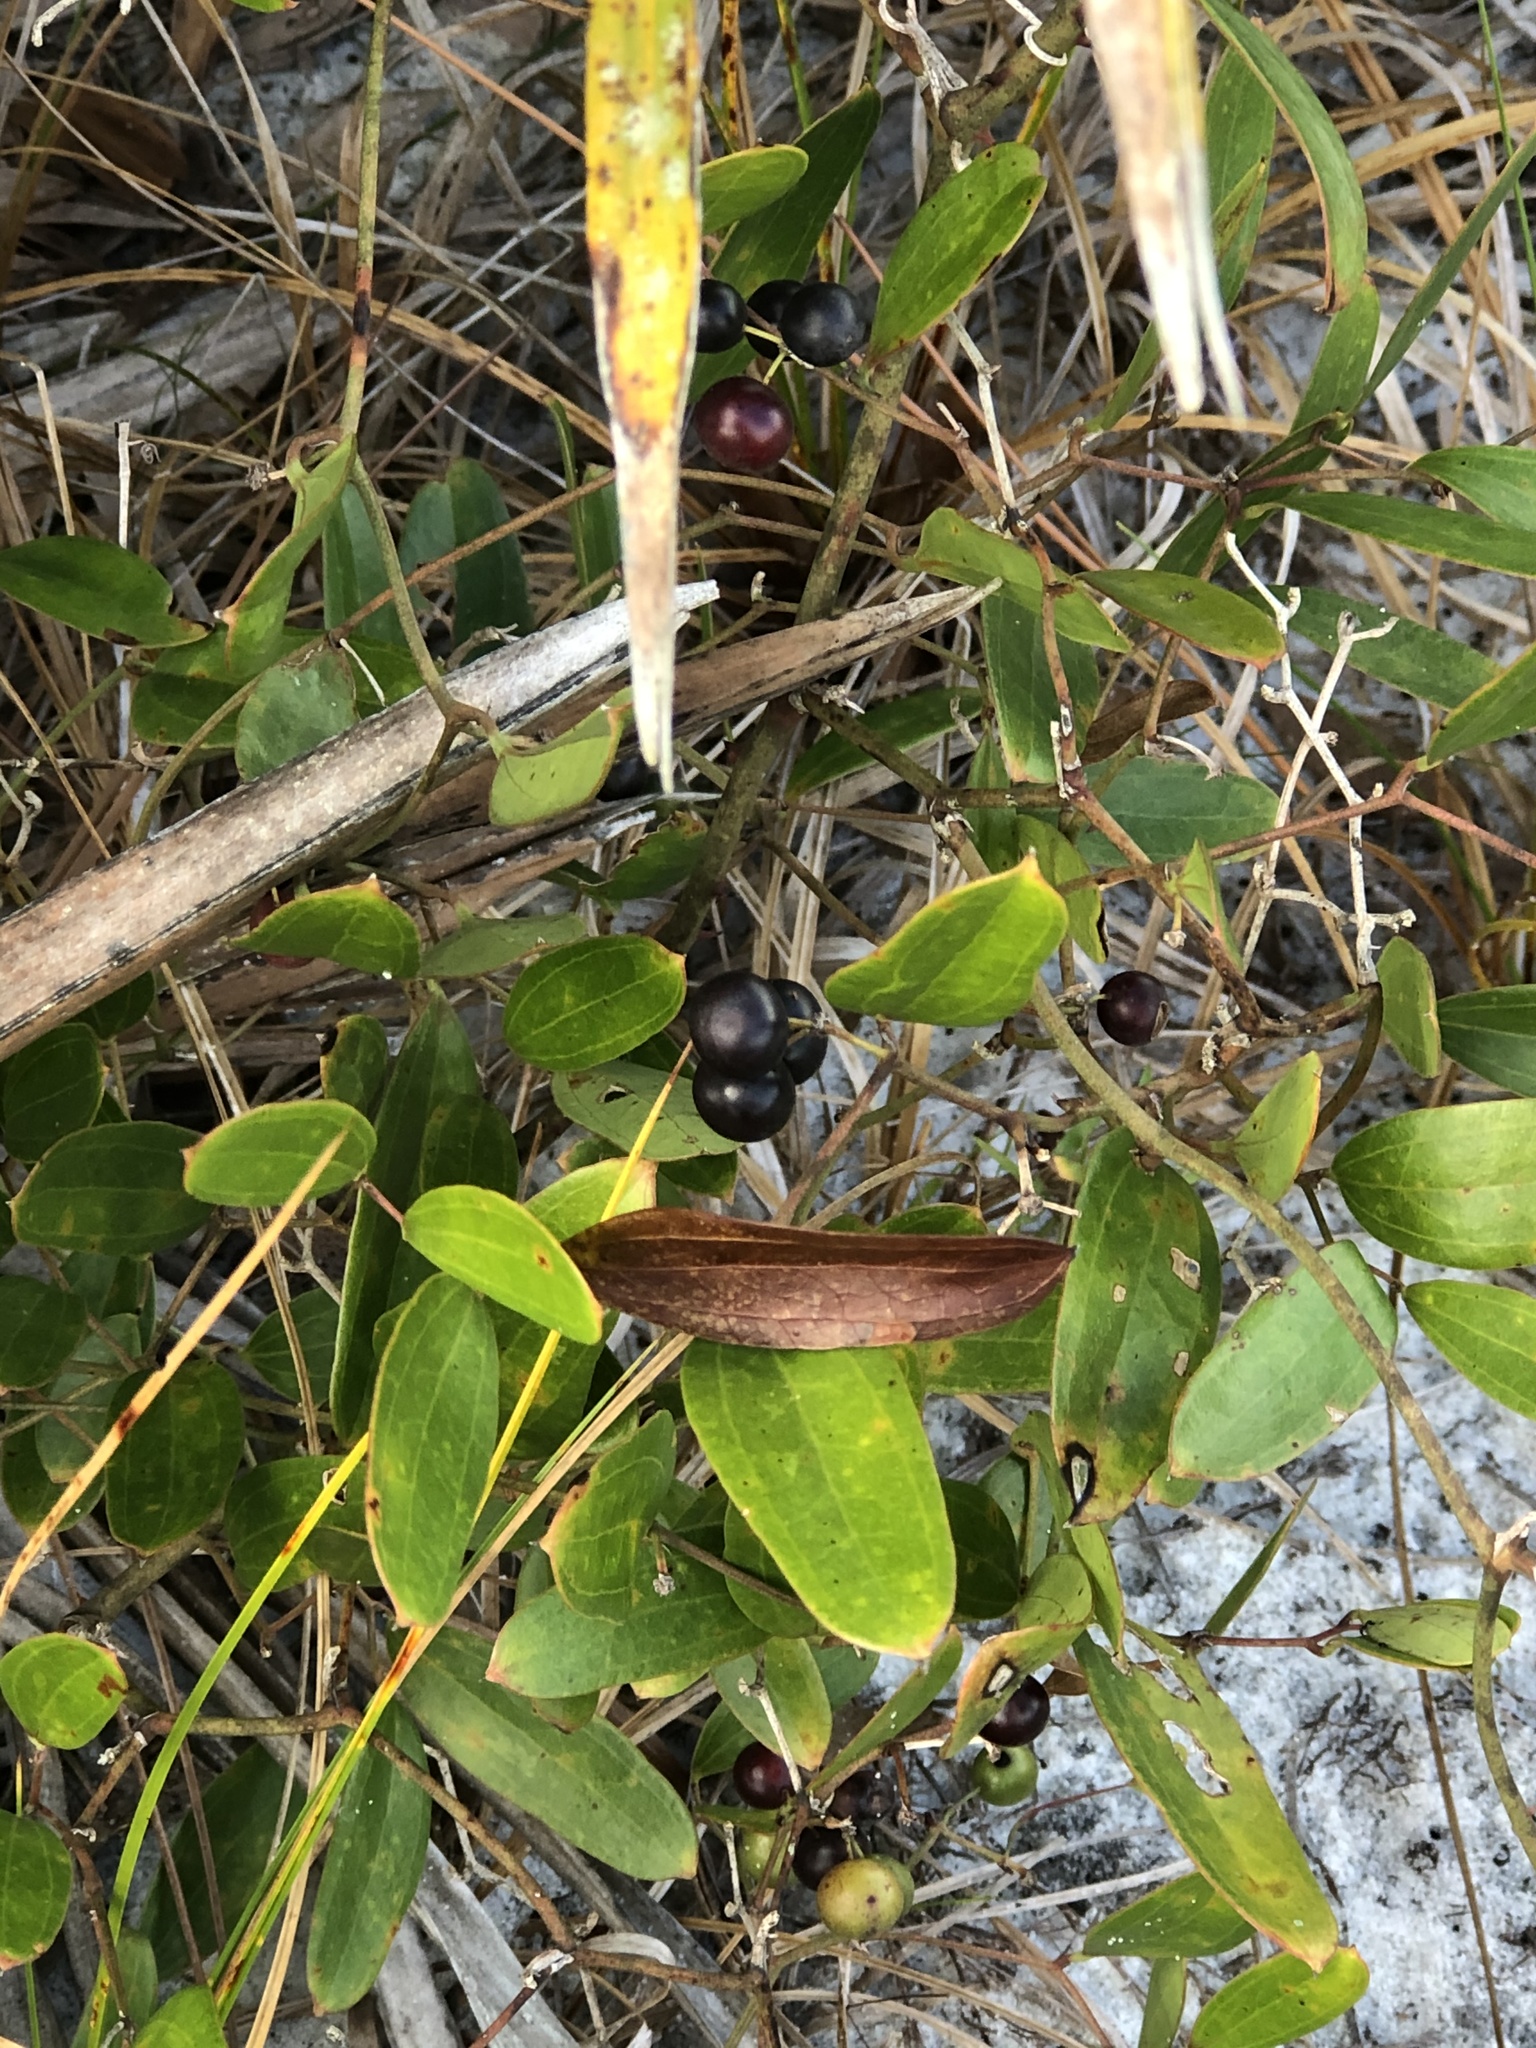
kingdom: Plantae
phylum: Tracheophyta
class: Liliopsida
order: Liliales
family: Smilacaceae
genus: Smilax
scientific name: Smilax auriculata
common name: Wild bamboo
